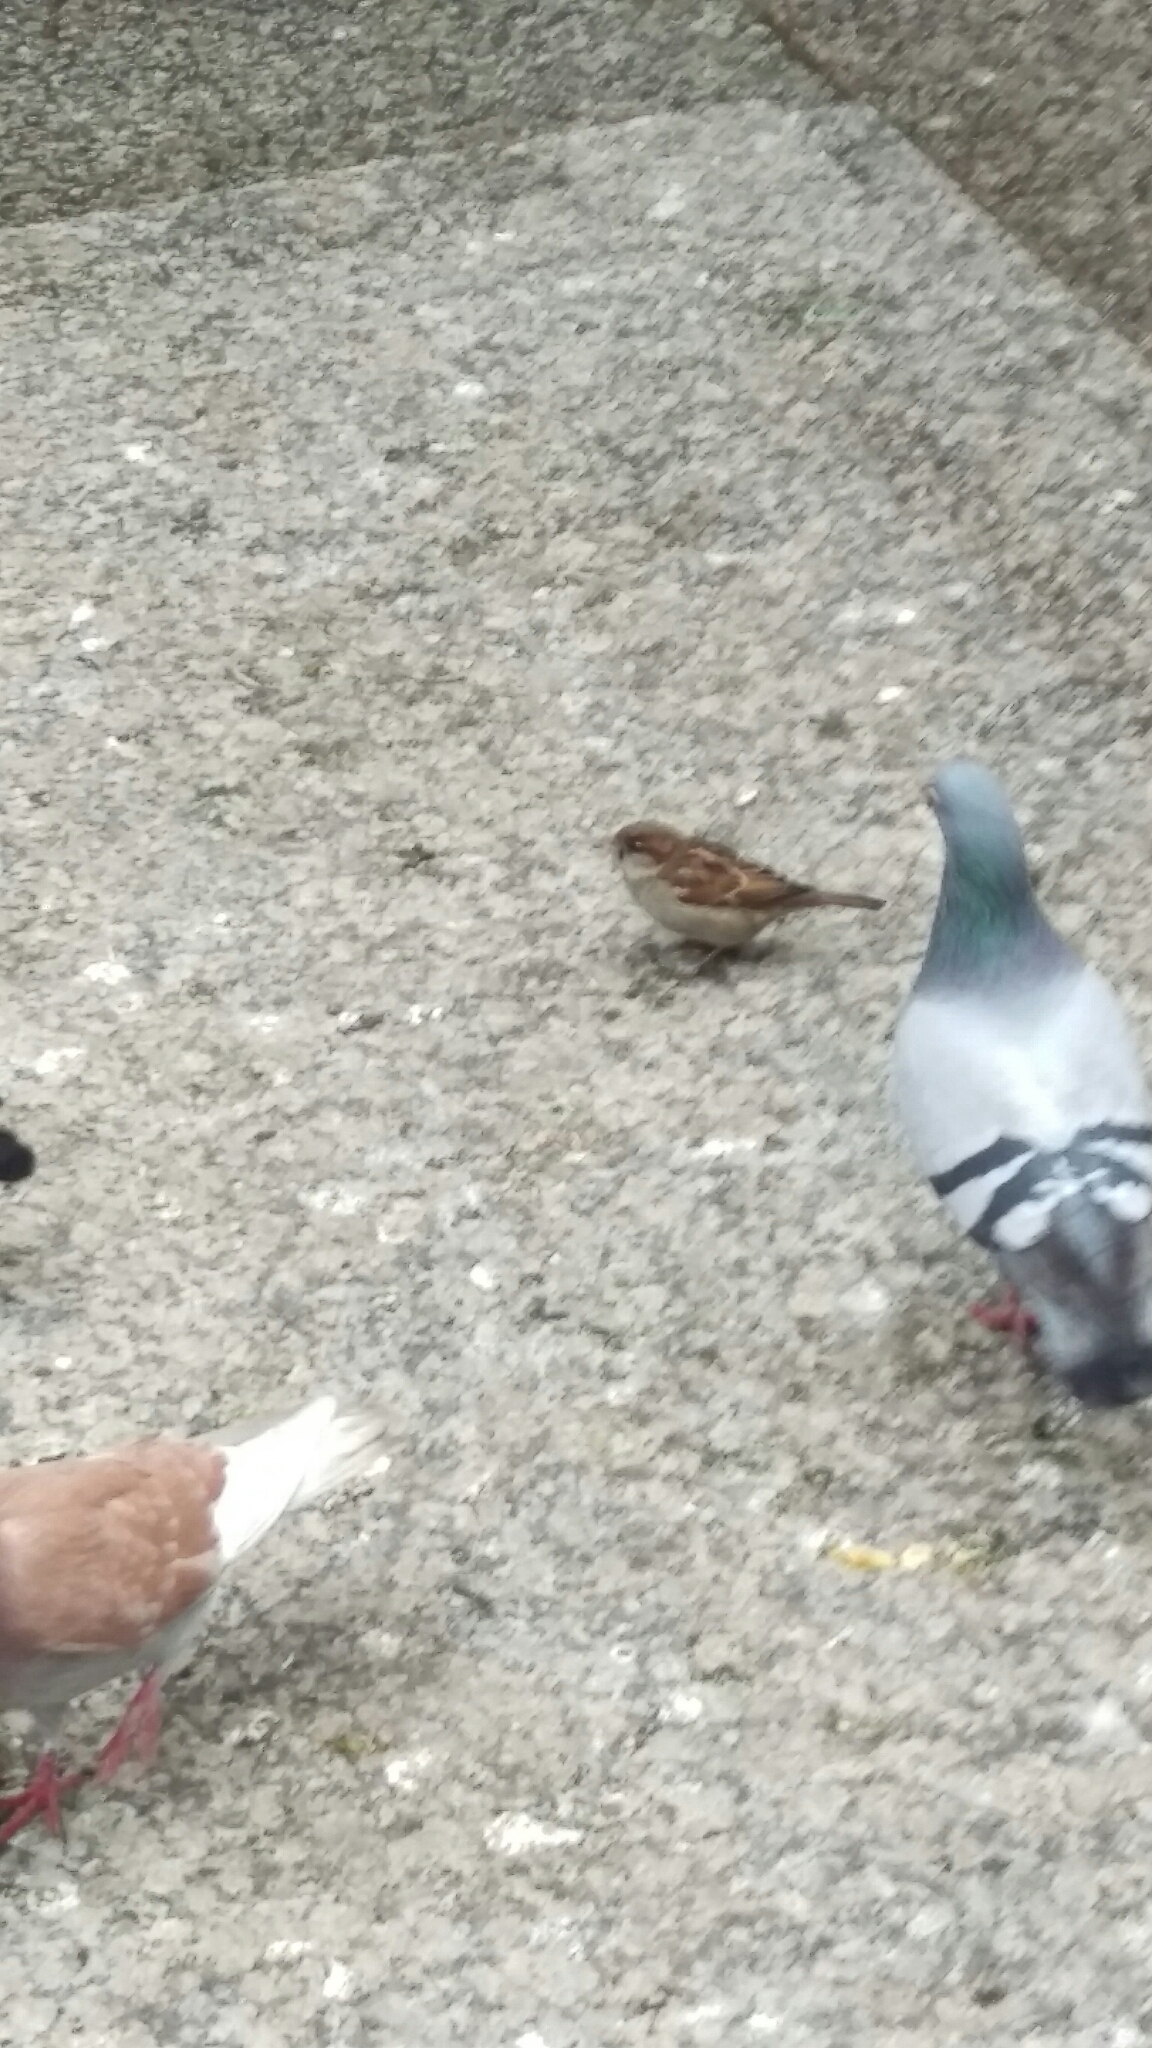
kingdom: Animalia
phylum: Chordata
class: Aves
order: Passeriformes
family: Passeridae
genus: Passer
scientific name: Passer domesticus
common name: House sparrow
